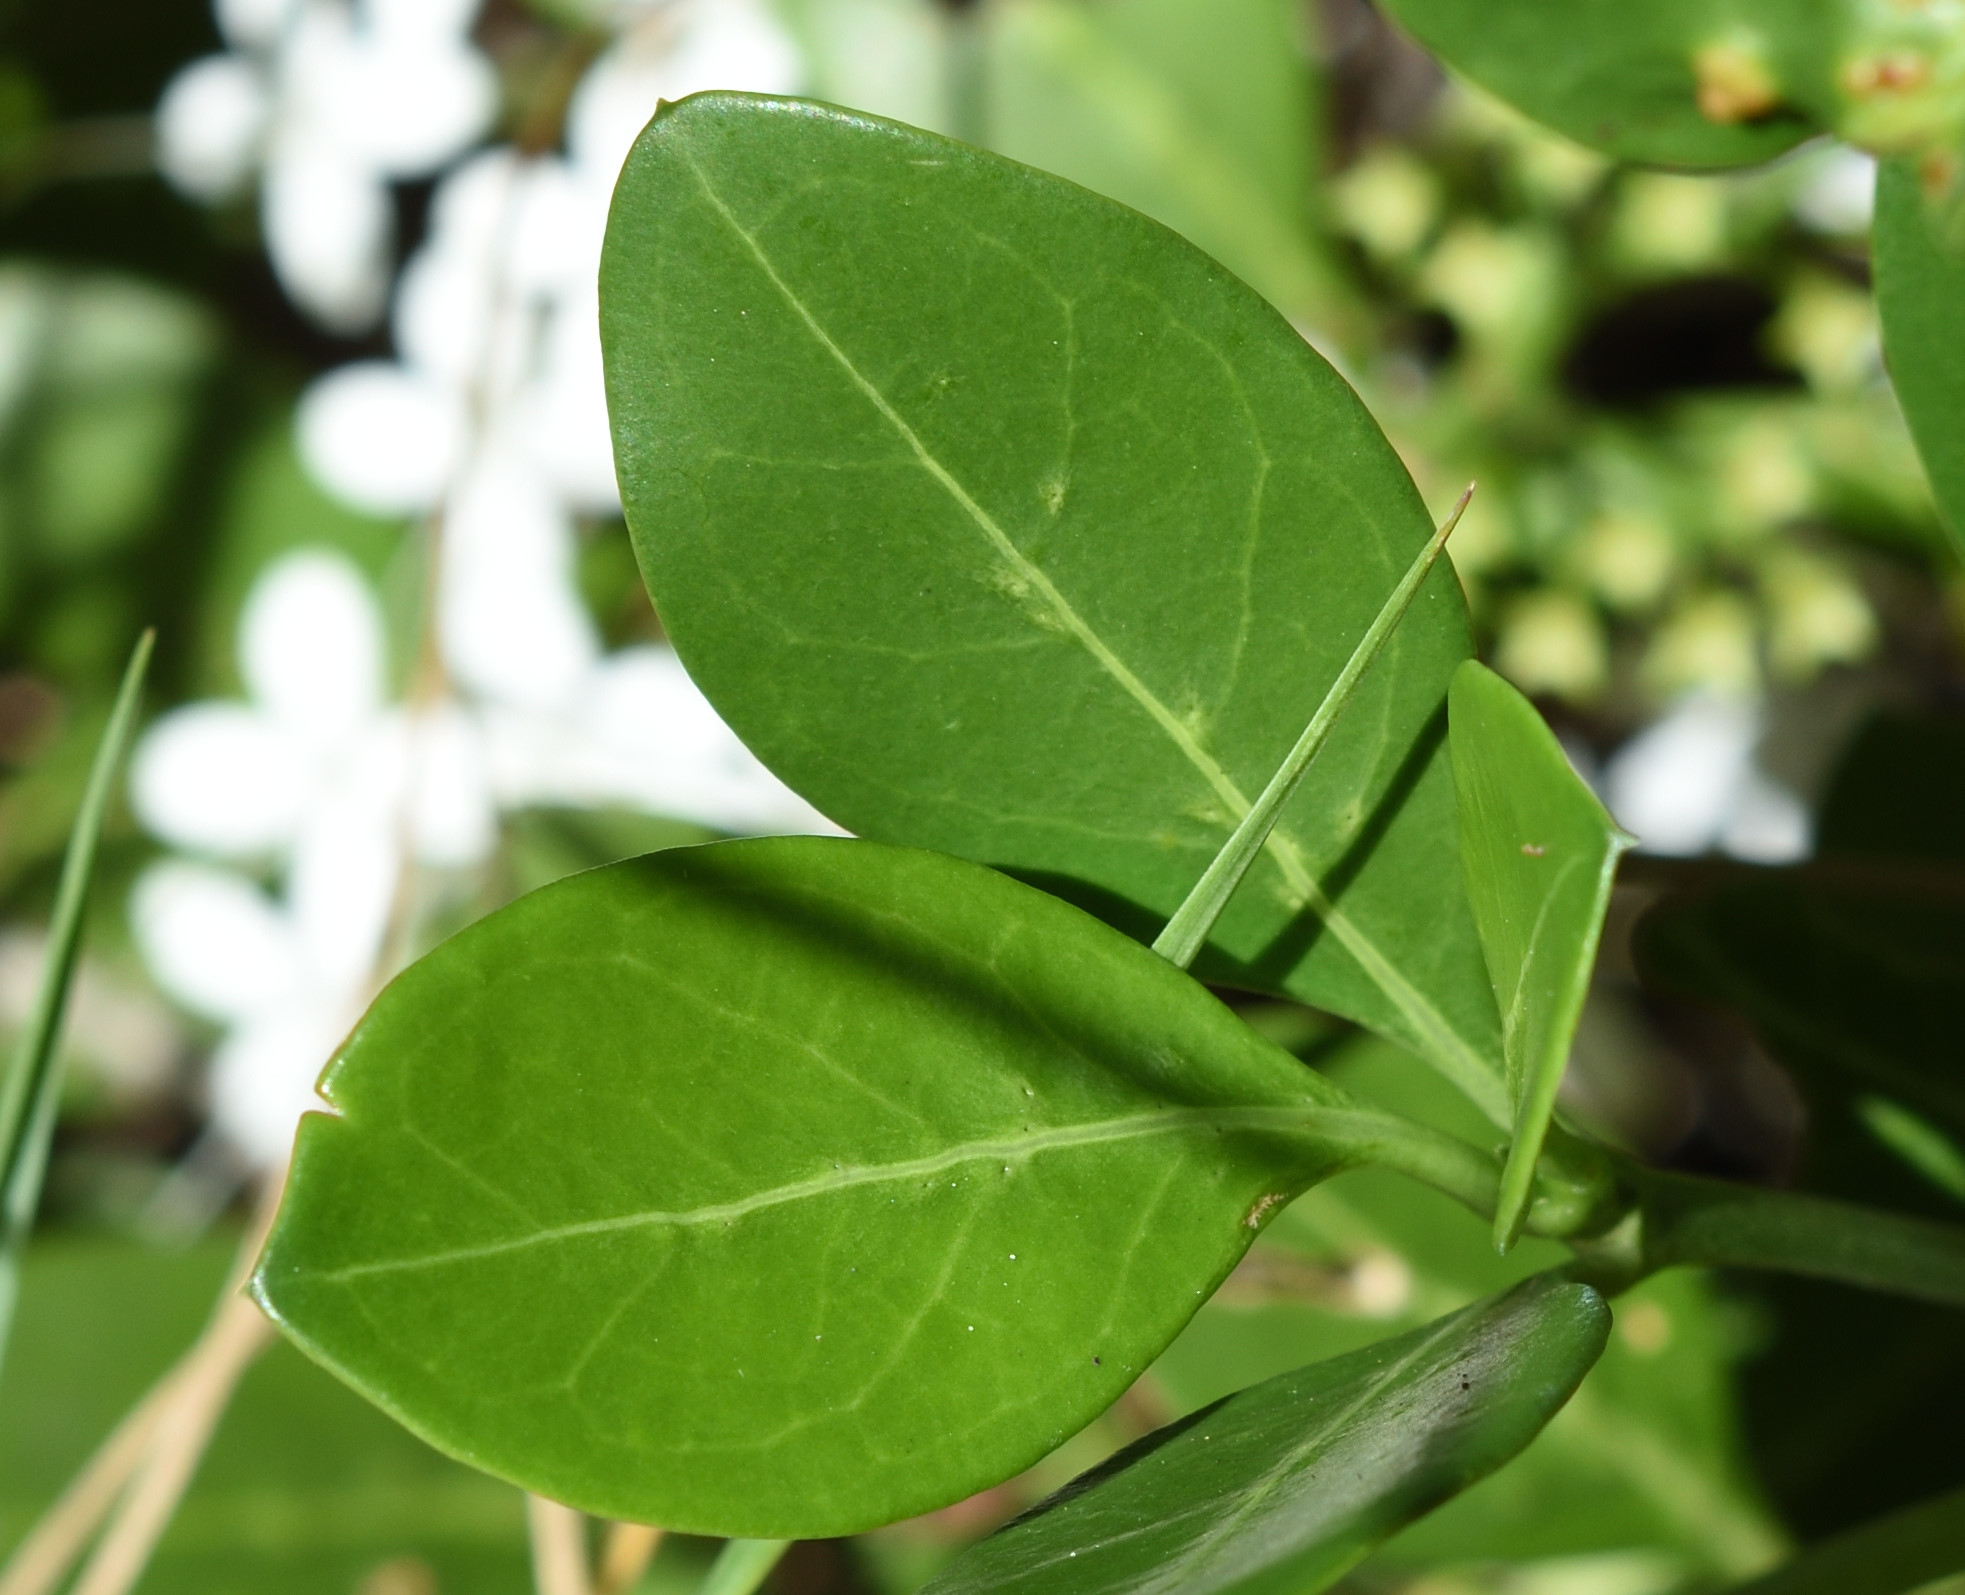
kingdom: Plantae
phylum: Tracheophyta
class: Magnoliopsida
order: Gentianales
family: Rubiaceae
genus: Pavetta
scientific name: Pavetta revoluta
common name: Dune brides-bush
